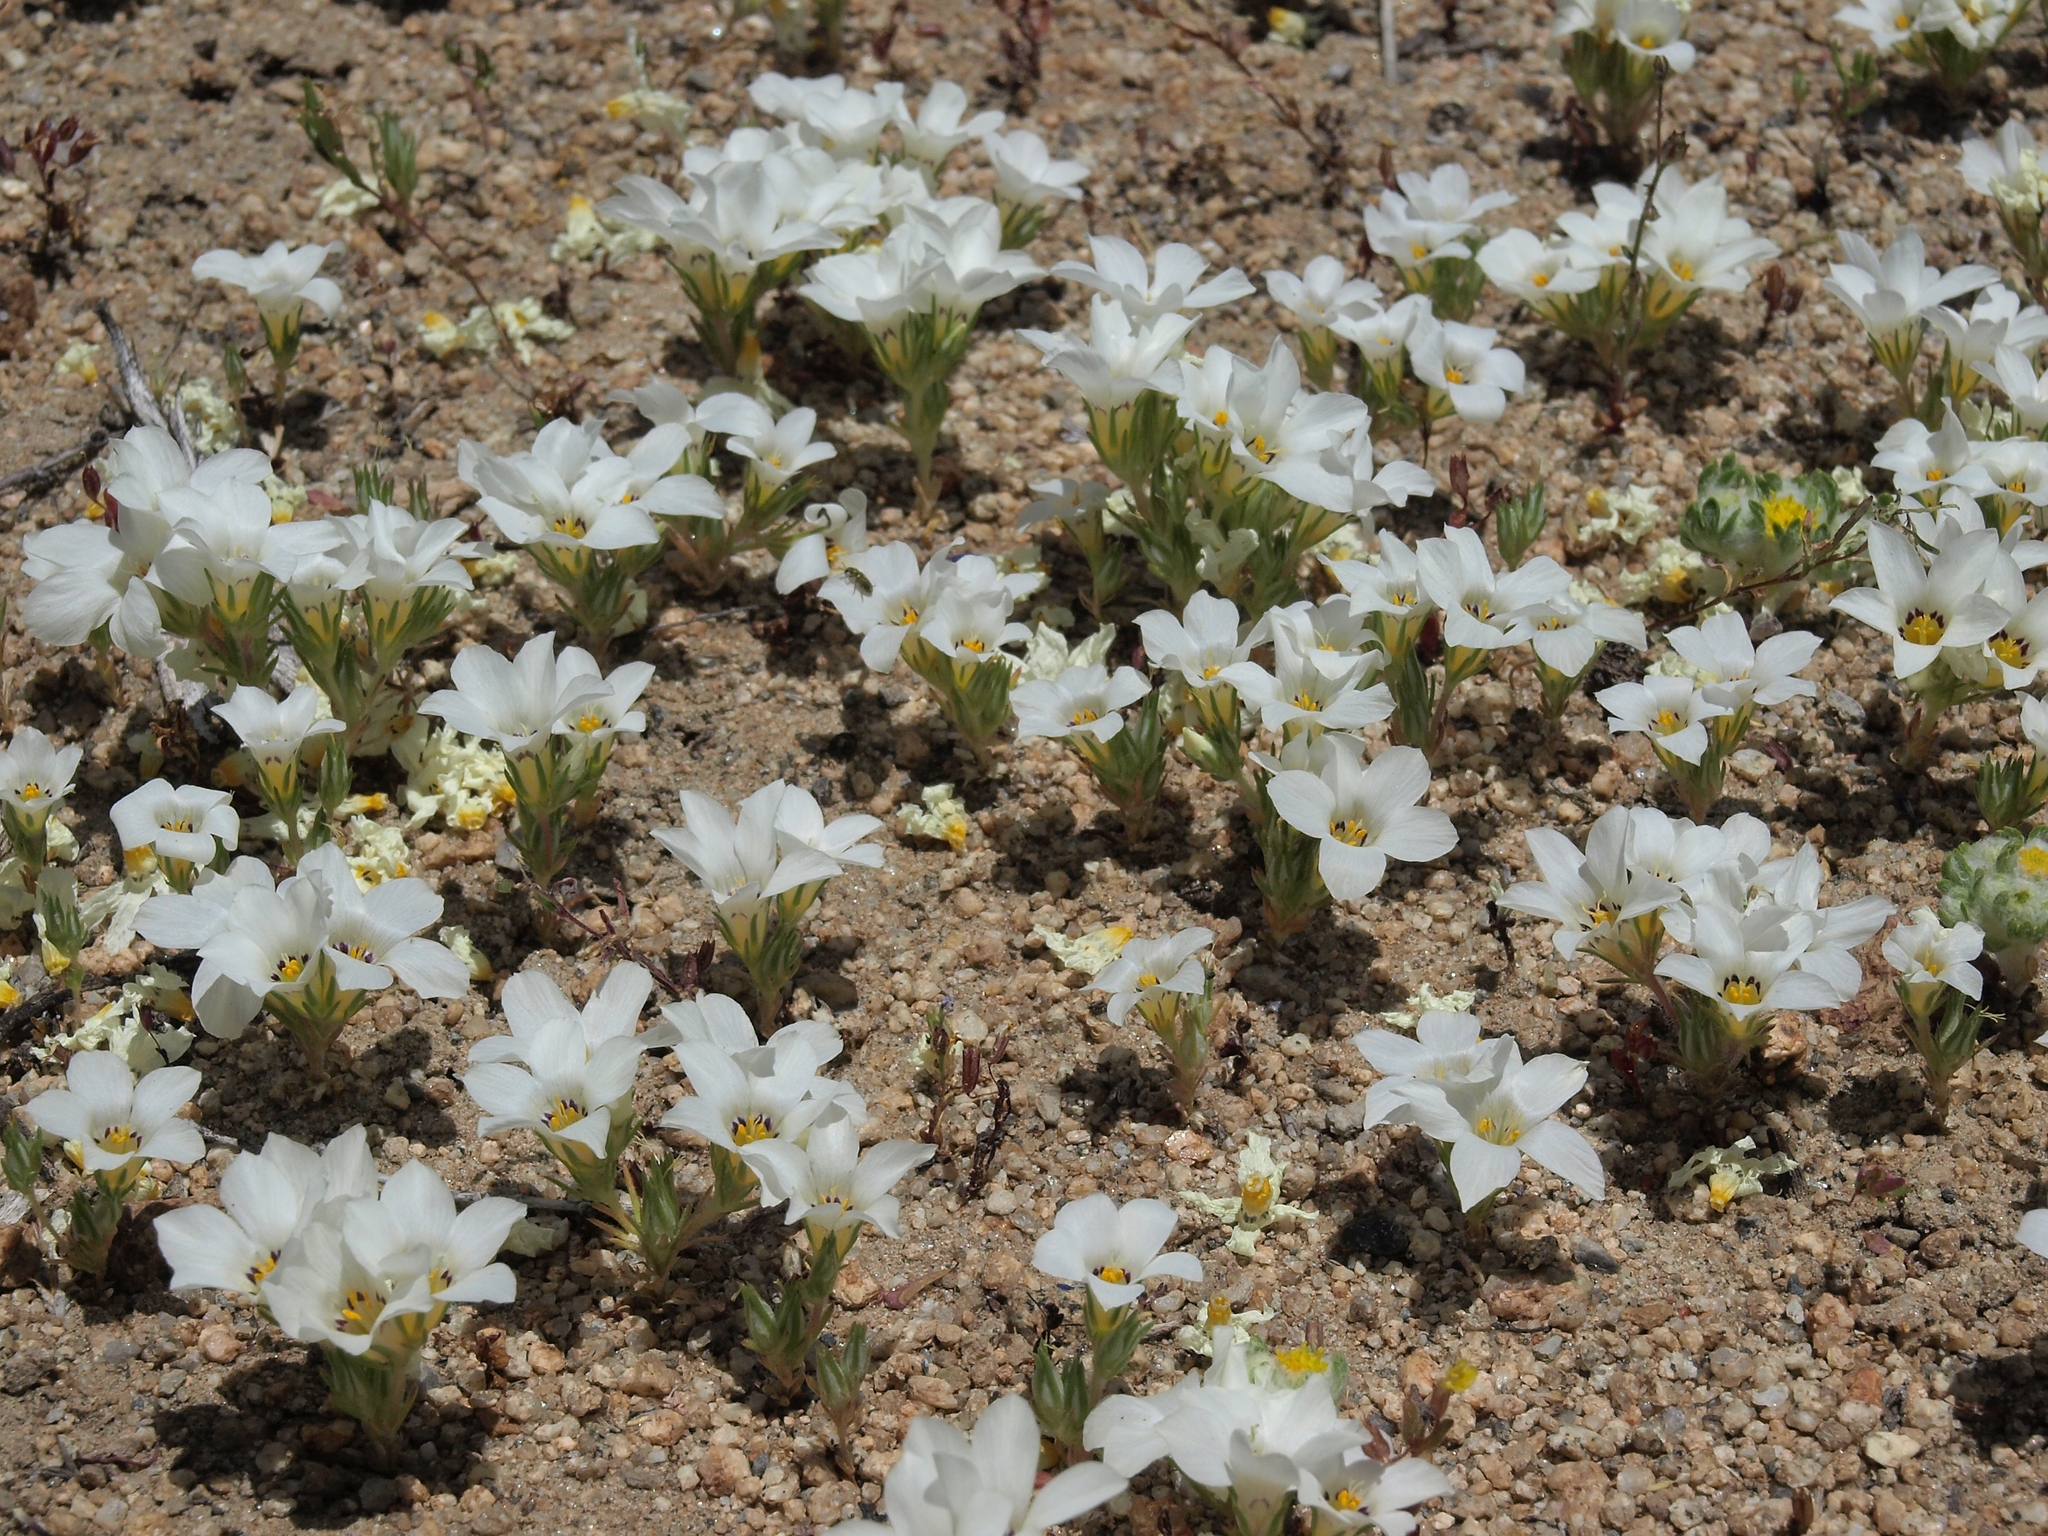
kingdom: Plantae
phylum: Tracheophyta
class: Magnoliopsida
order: Ericales
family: Polemoniaceae
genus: Linanthus
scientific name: Linanthus parryae
